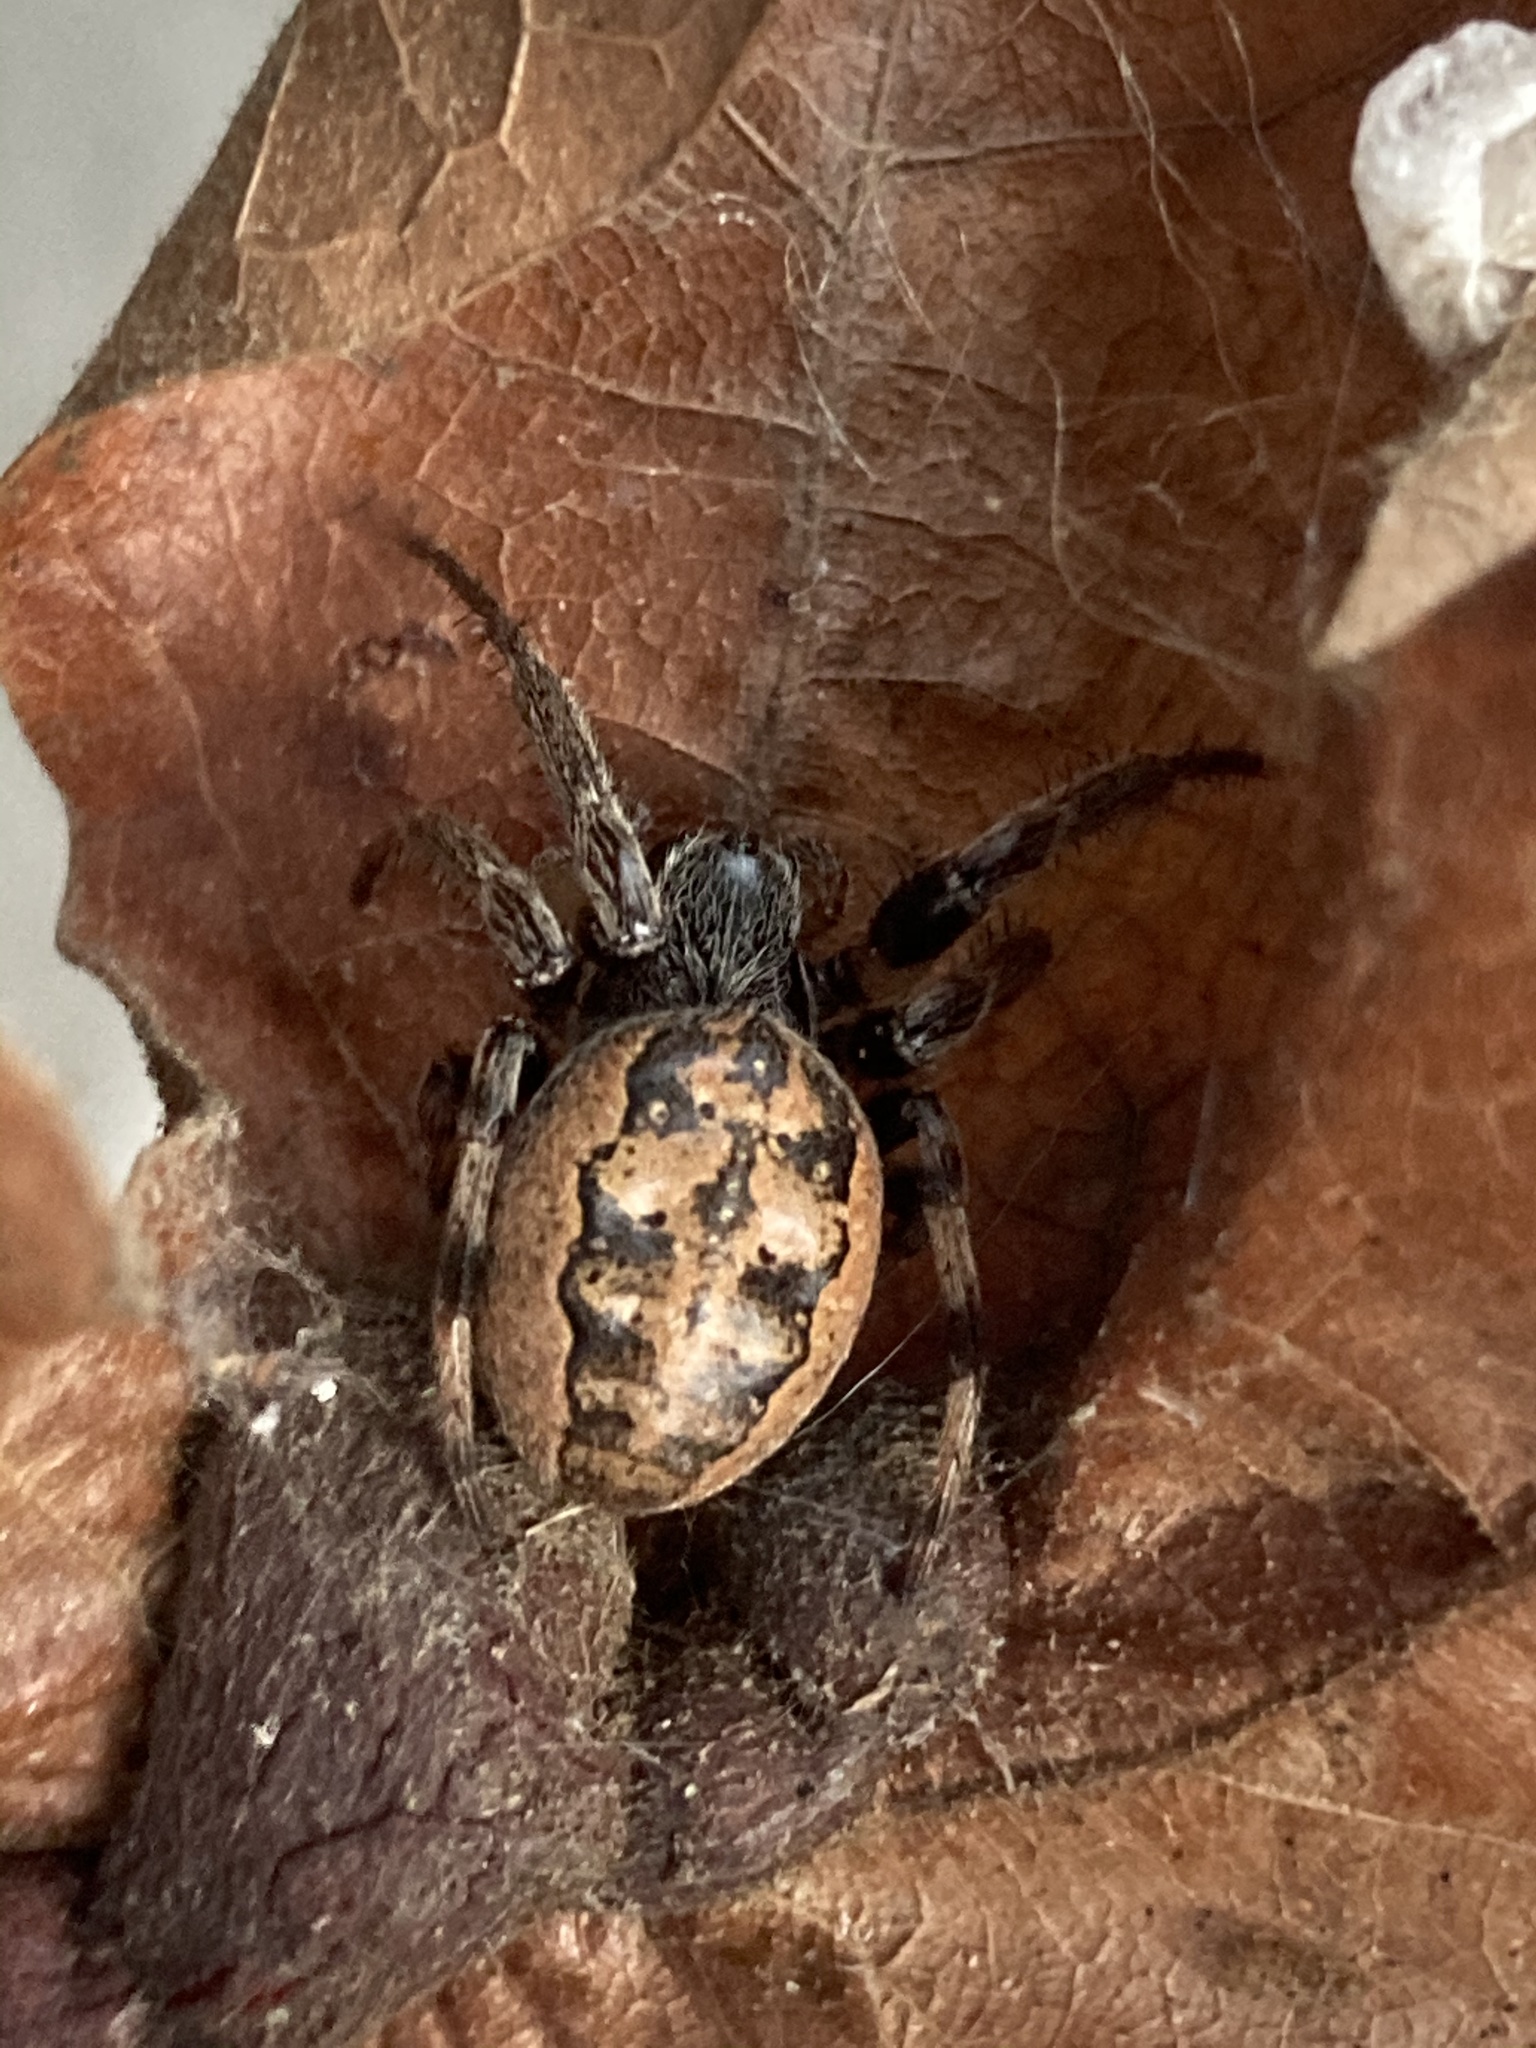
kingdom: Animalia
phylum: Arthropoda
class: Arachnida
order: Araneae
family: Araneidae
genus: Larinioides
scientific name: Larinioides cornutus
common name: Furrow orbweaver
